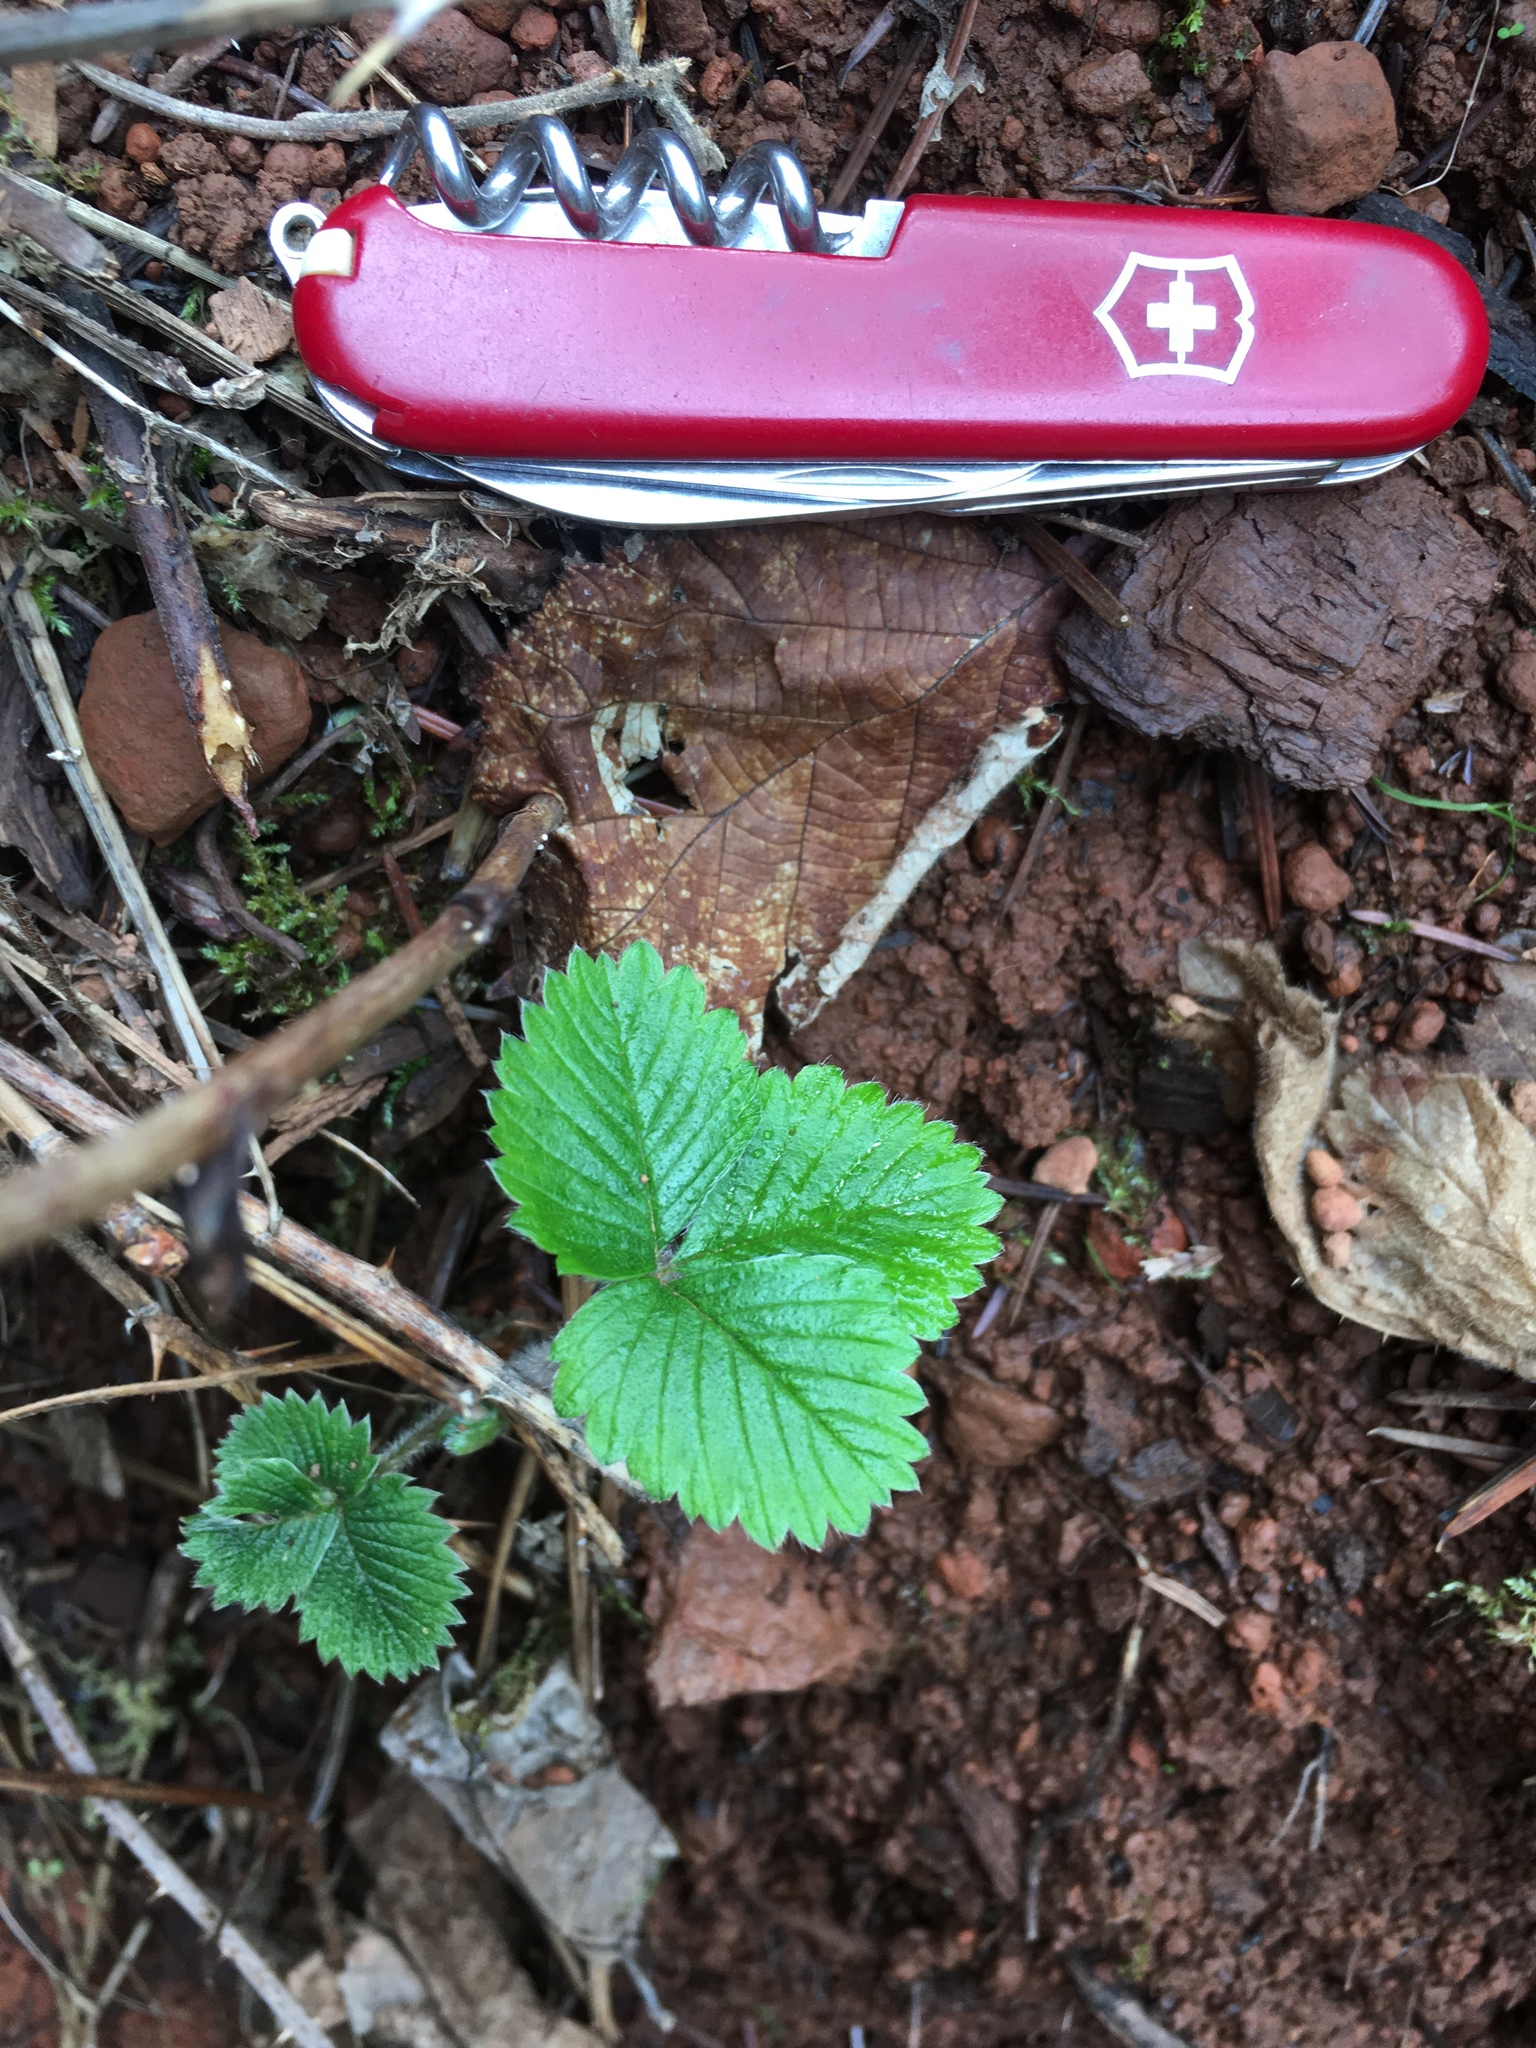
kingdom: Plantae
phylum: Tracheophyta
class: Magnoliopsida
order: Rosales
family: Rosaceae
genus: Fragaria
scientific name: Fragaria vesca
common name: Wild strawberry
